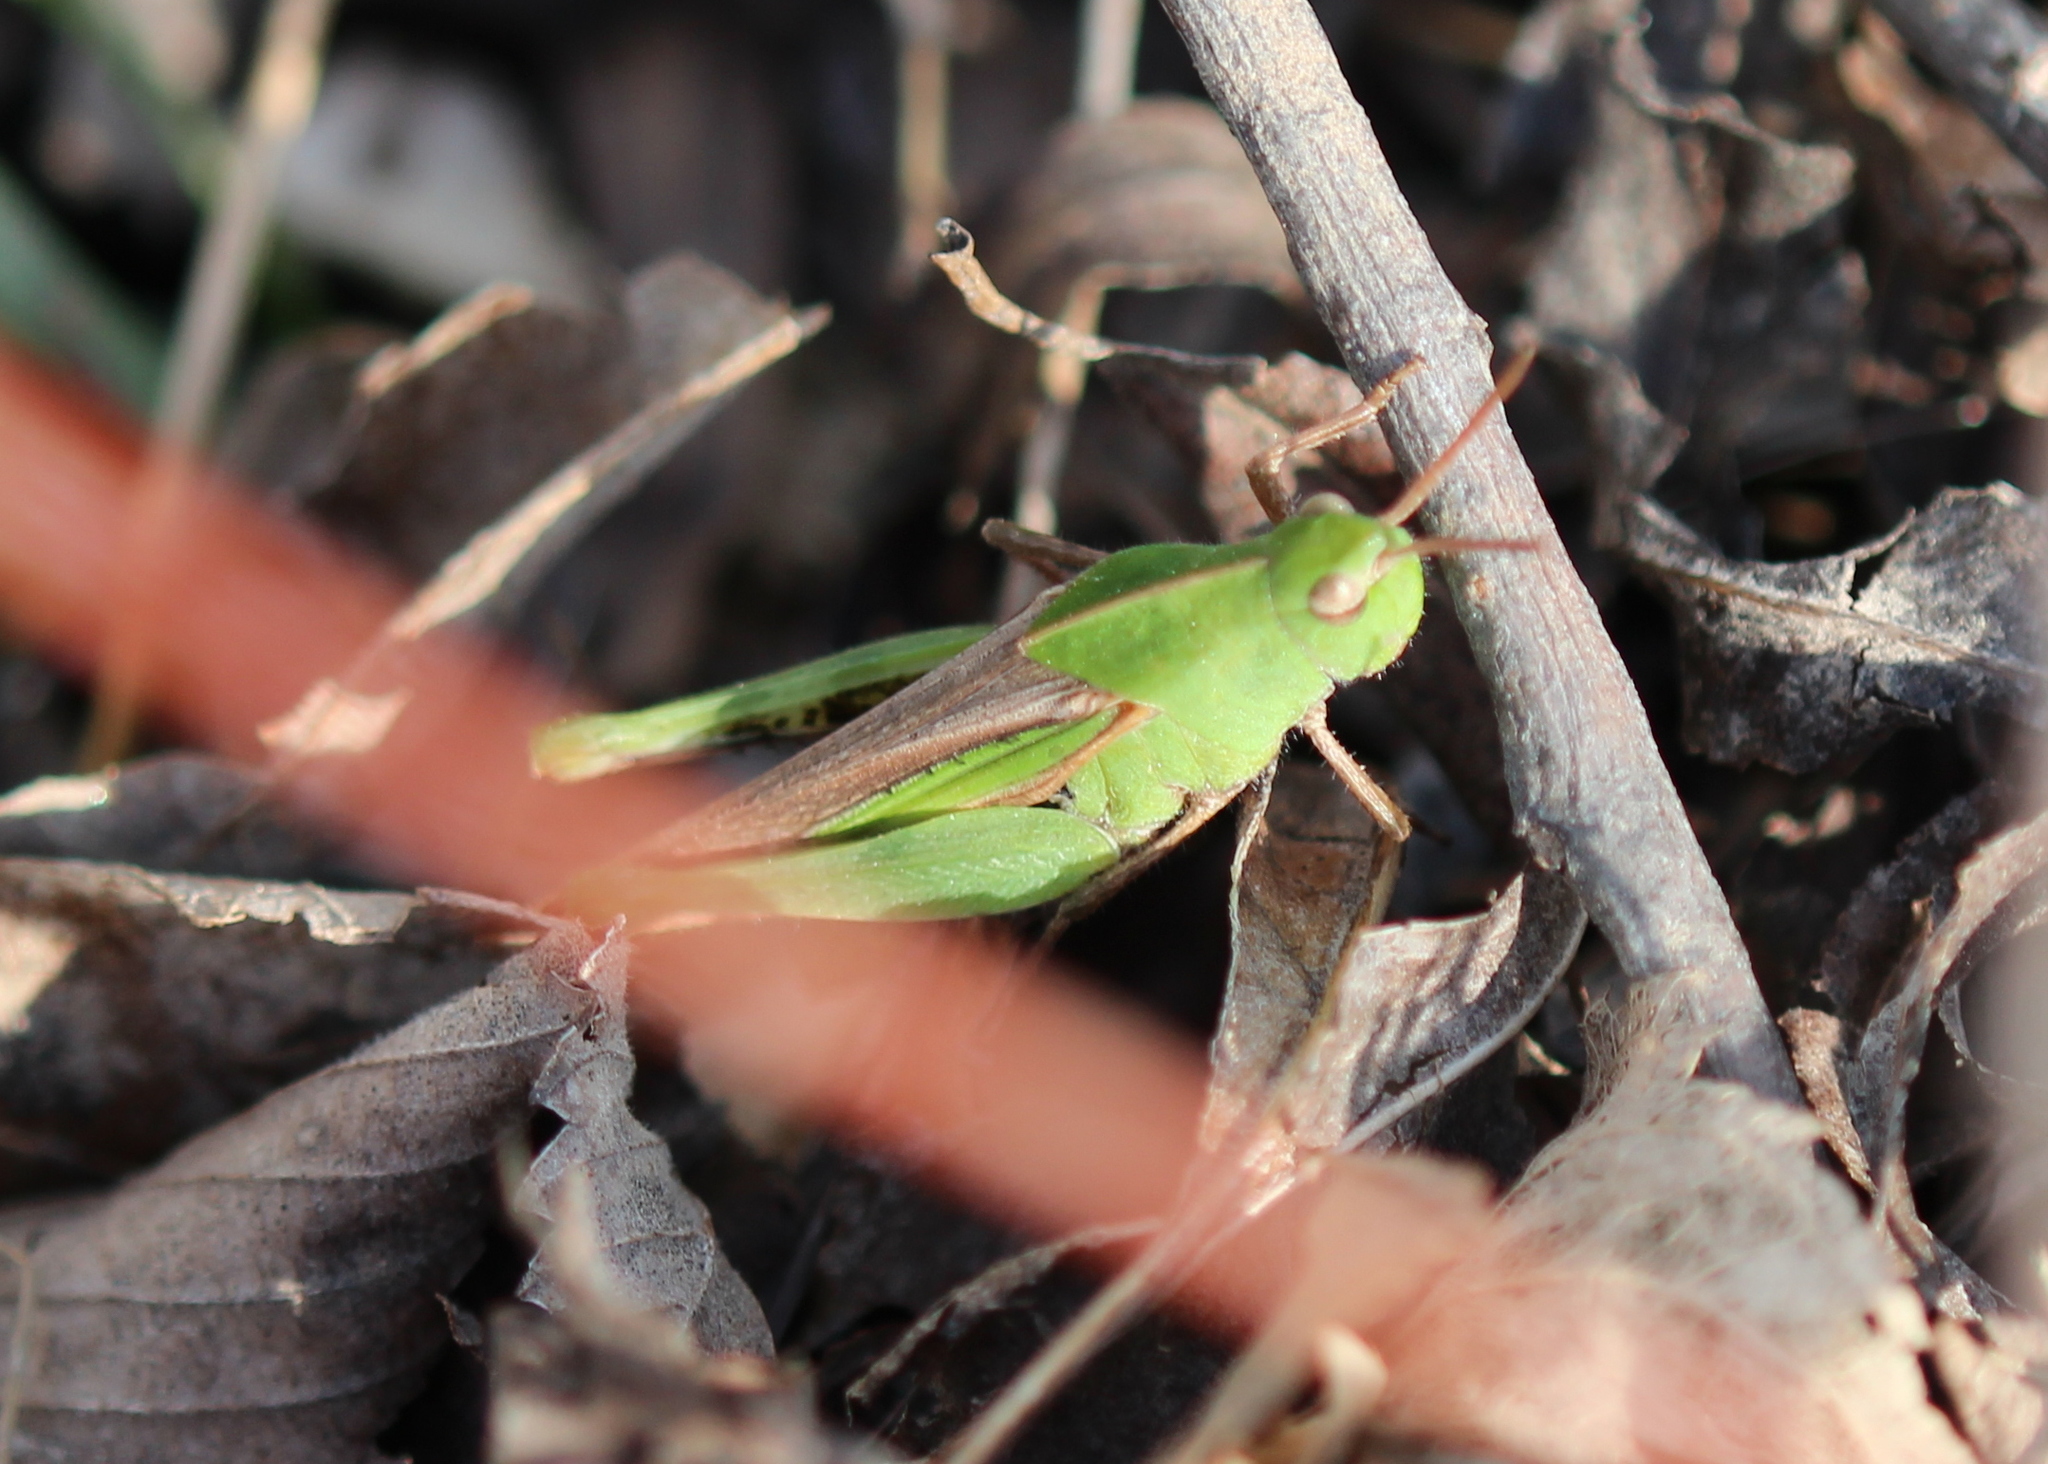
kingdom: Animalia
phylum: Arthropoda
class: Insecta
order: Orthoptera
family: Acrididae
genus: Chortophaga
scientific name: Chortophaga viridifasciata
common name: Green-striped grasshopper
